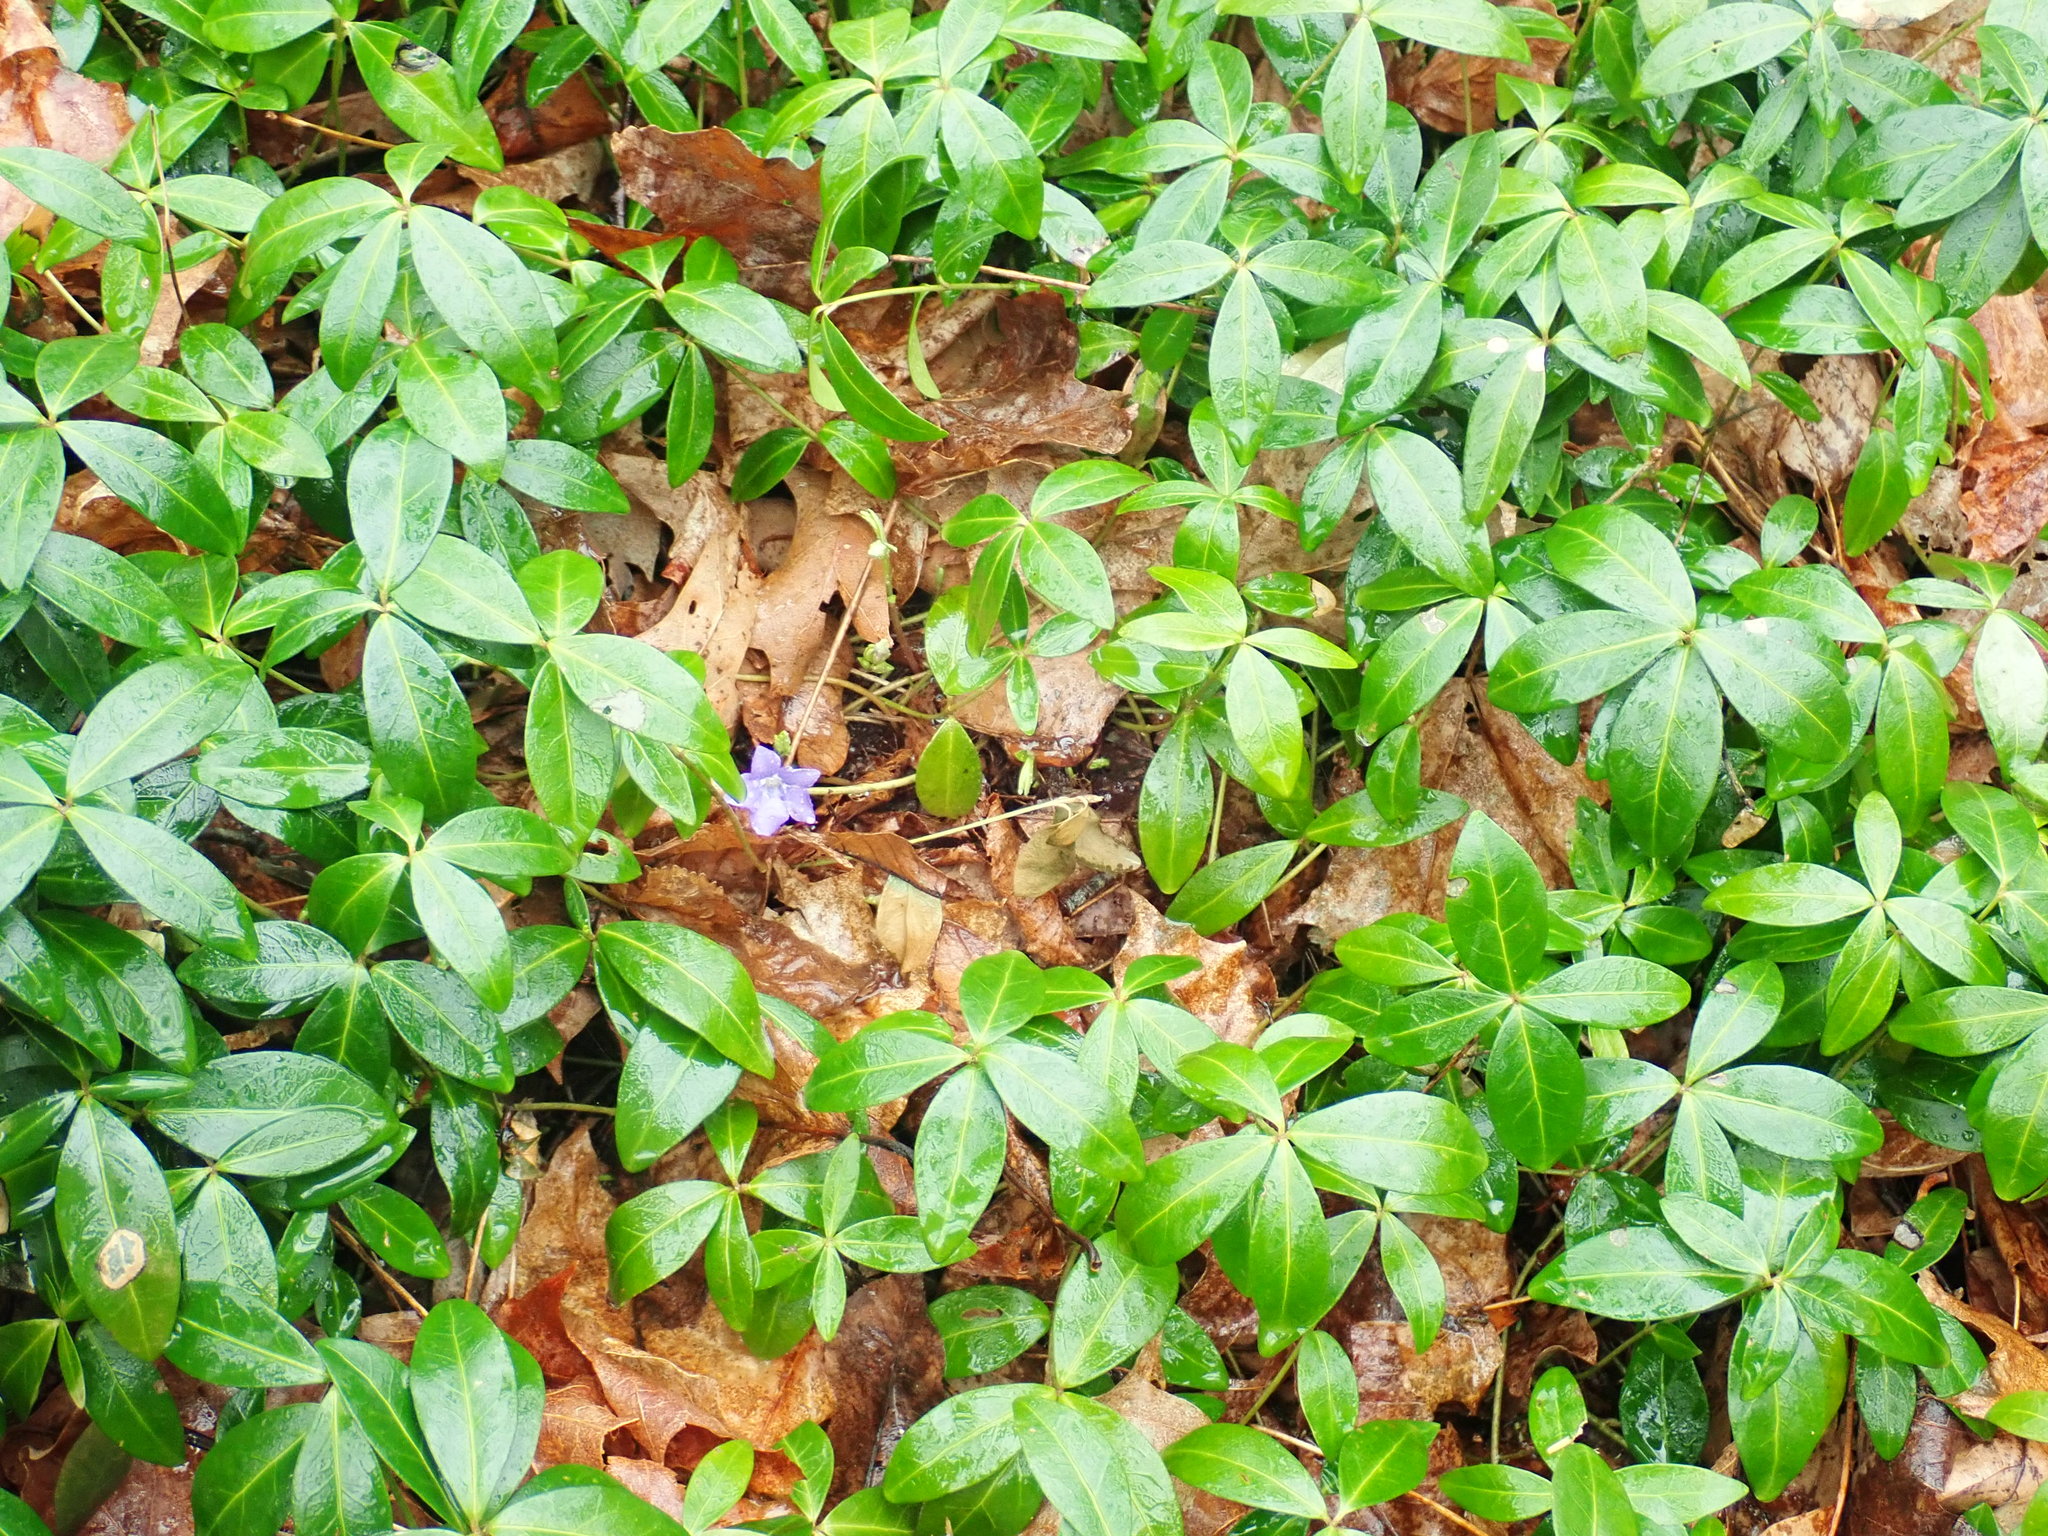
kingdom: Plantae
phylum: Tracheophyta
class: Magnoliopsida
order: Gentianales
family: Apocynaceae
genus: Vinca
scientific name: Vinca minor
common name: Lesser periwinkle
